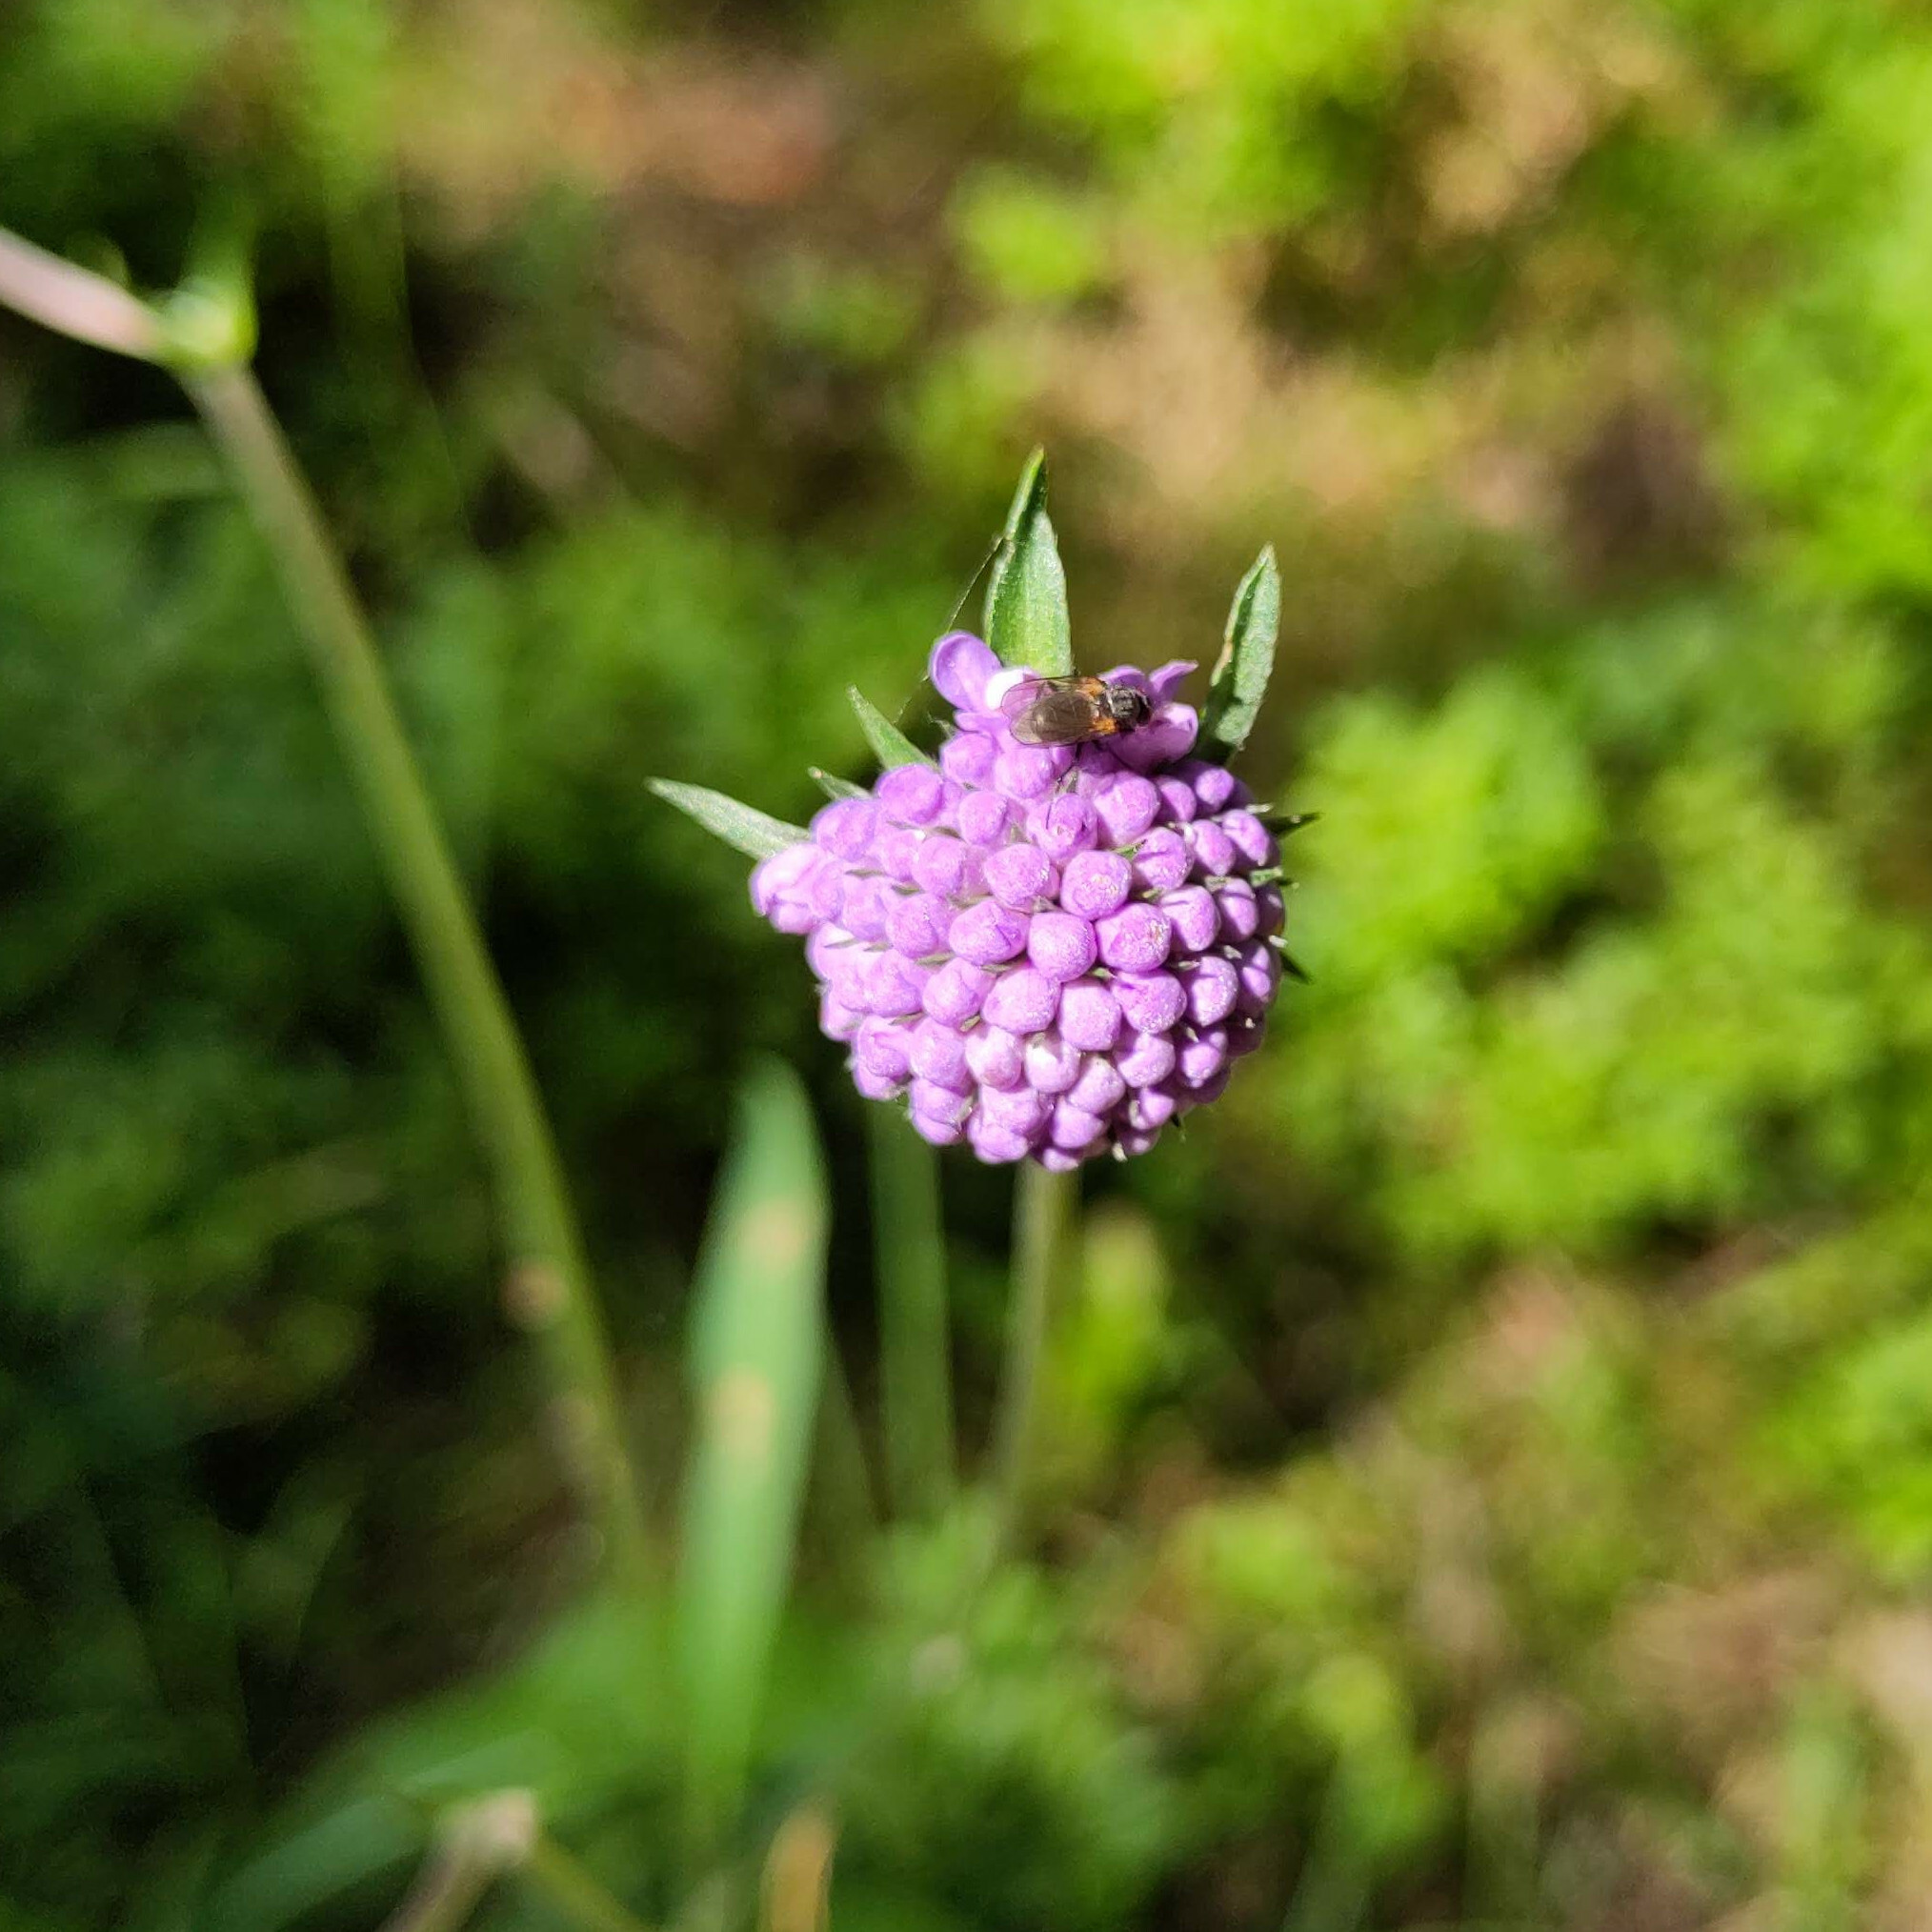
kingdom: Plantae
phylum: Tracheophyta
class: Magnoliopsida
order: Dipsacales
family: Caprifoliaceae
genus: Succisa
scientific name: Succisa pratensis
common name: Devil's-bit
